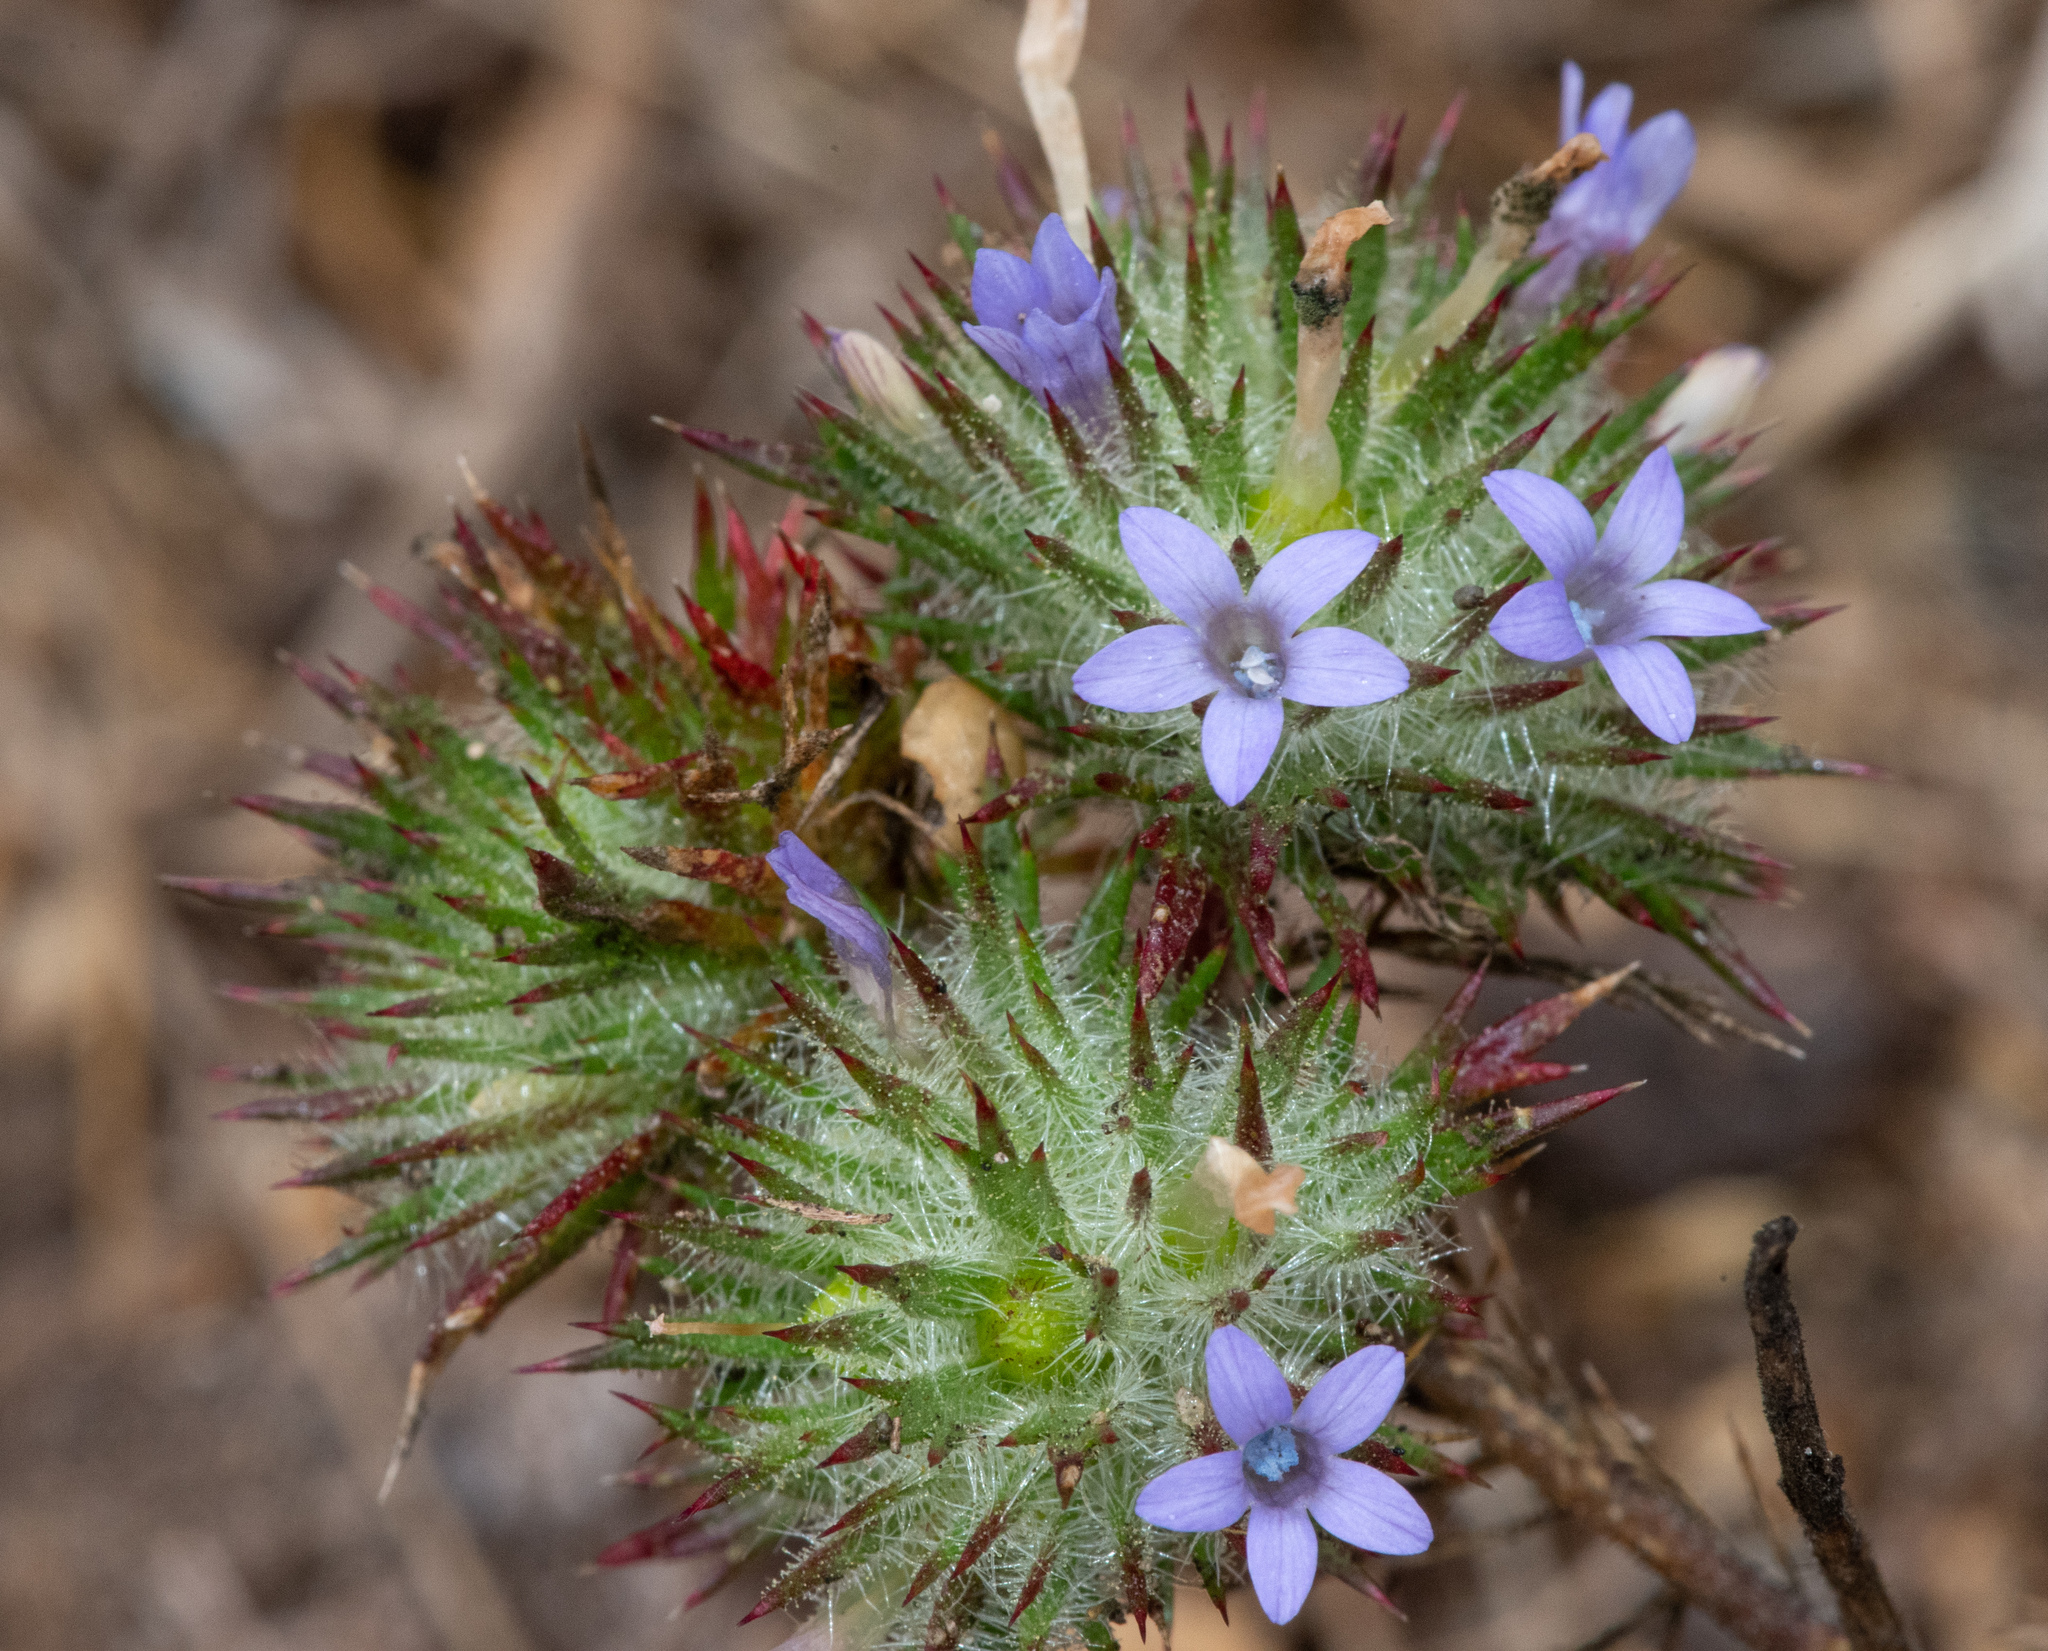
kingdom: Plantae
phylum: Tracheophyta
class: Magnoliopsida
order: Ericales
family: Polemoniaceae
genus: Navarretia
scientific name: Navarretia squarrosa
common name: Skunkweed
